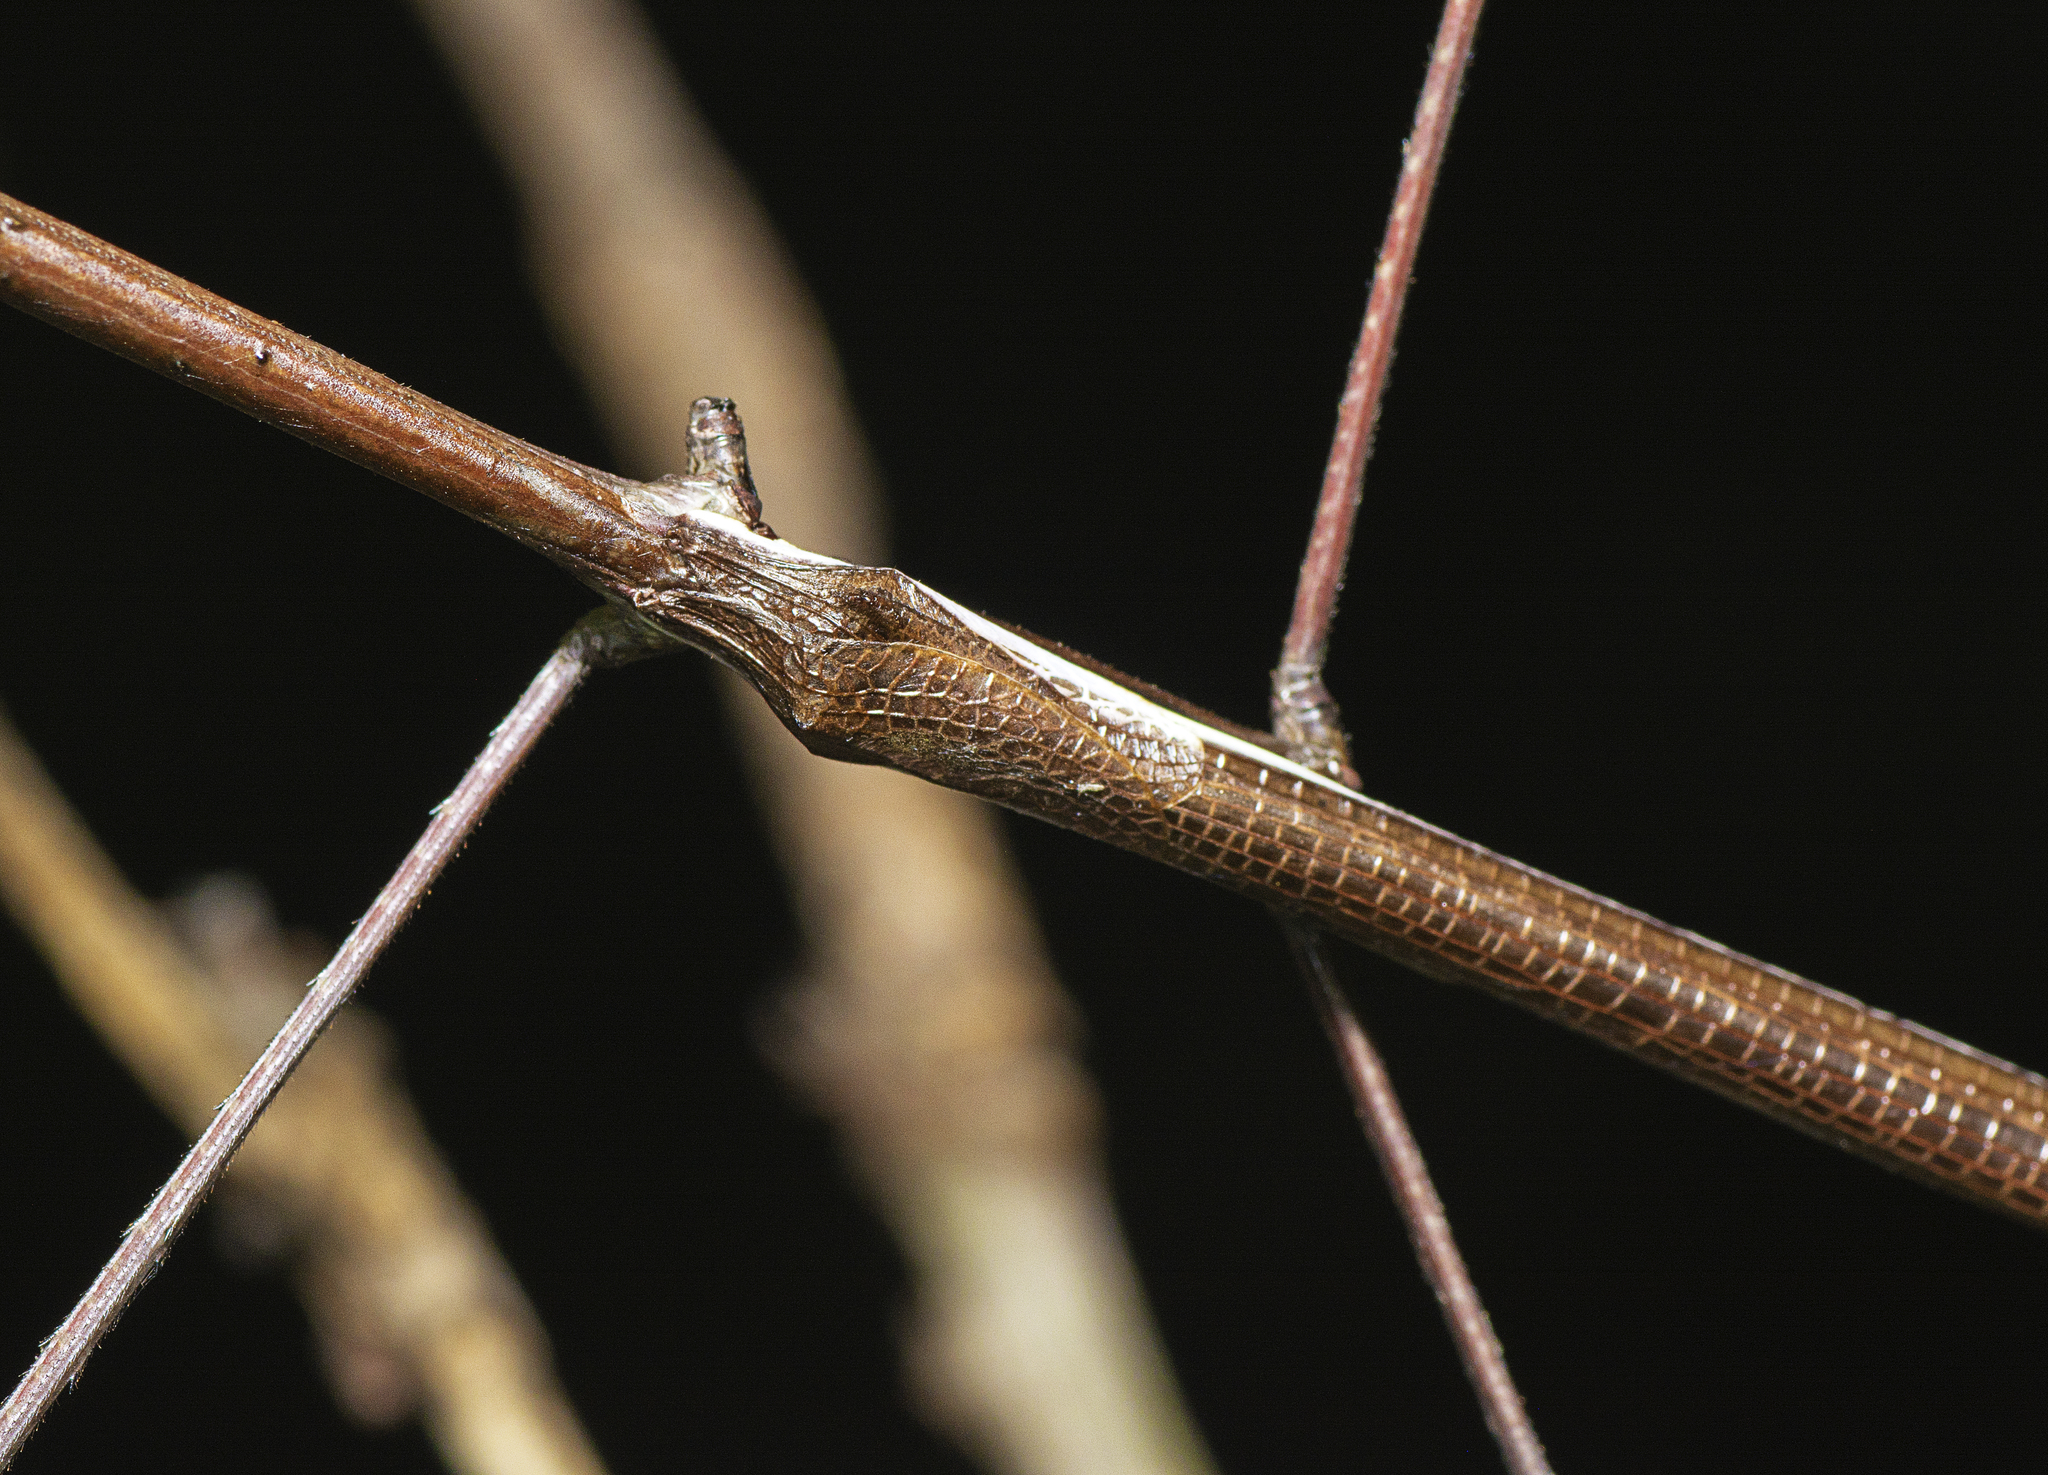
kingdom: Animalia
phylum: Arthropoda
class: Insecta
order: Phasmida
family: Phasmatidae
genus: Ctenomorpha
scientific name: Ctenomorpha marginipennis
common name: Margined-winged stick-insect
